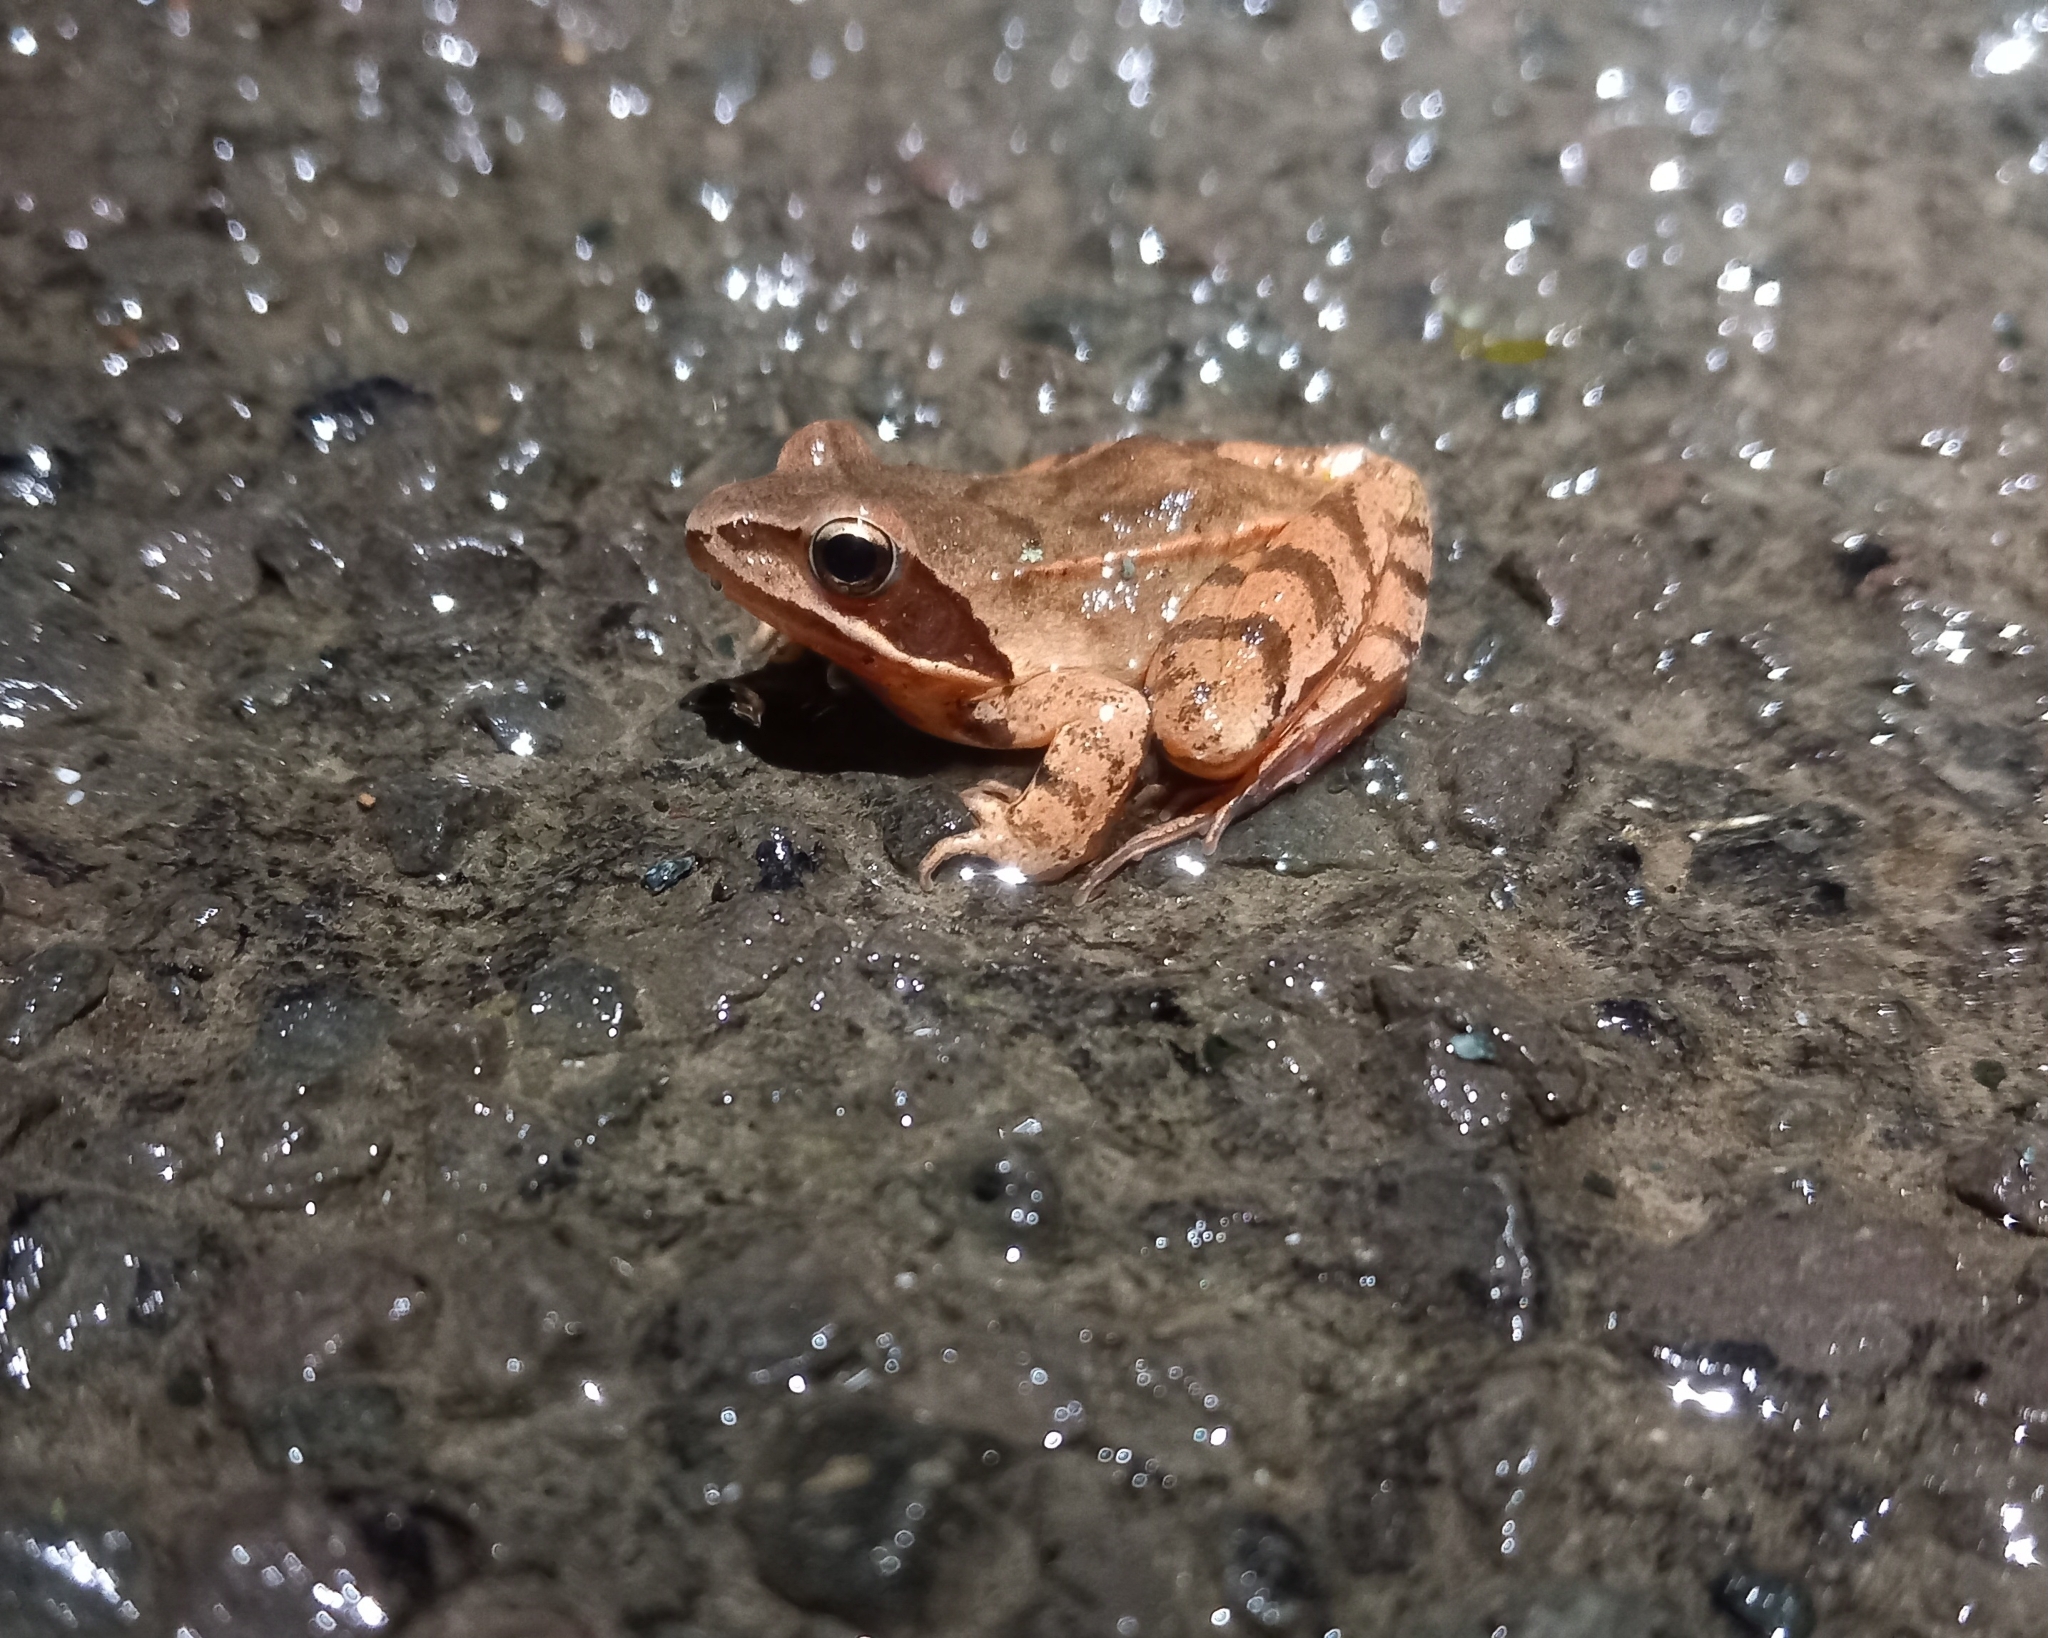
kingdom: Animalia
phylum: Chordata
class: Amphibia
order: Anura
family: Ranidae
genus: Rana
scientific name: Rana dalmatina
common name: Agile frog
